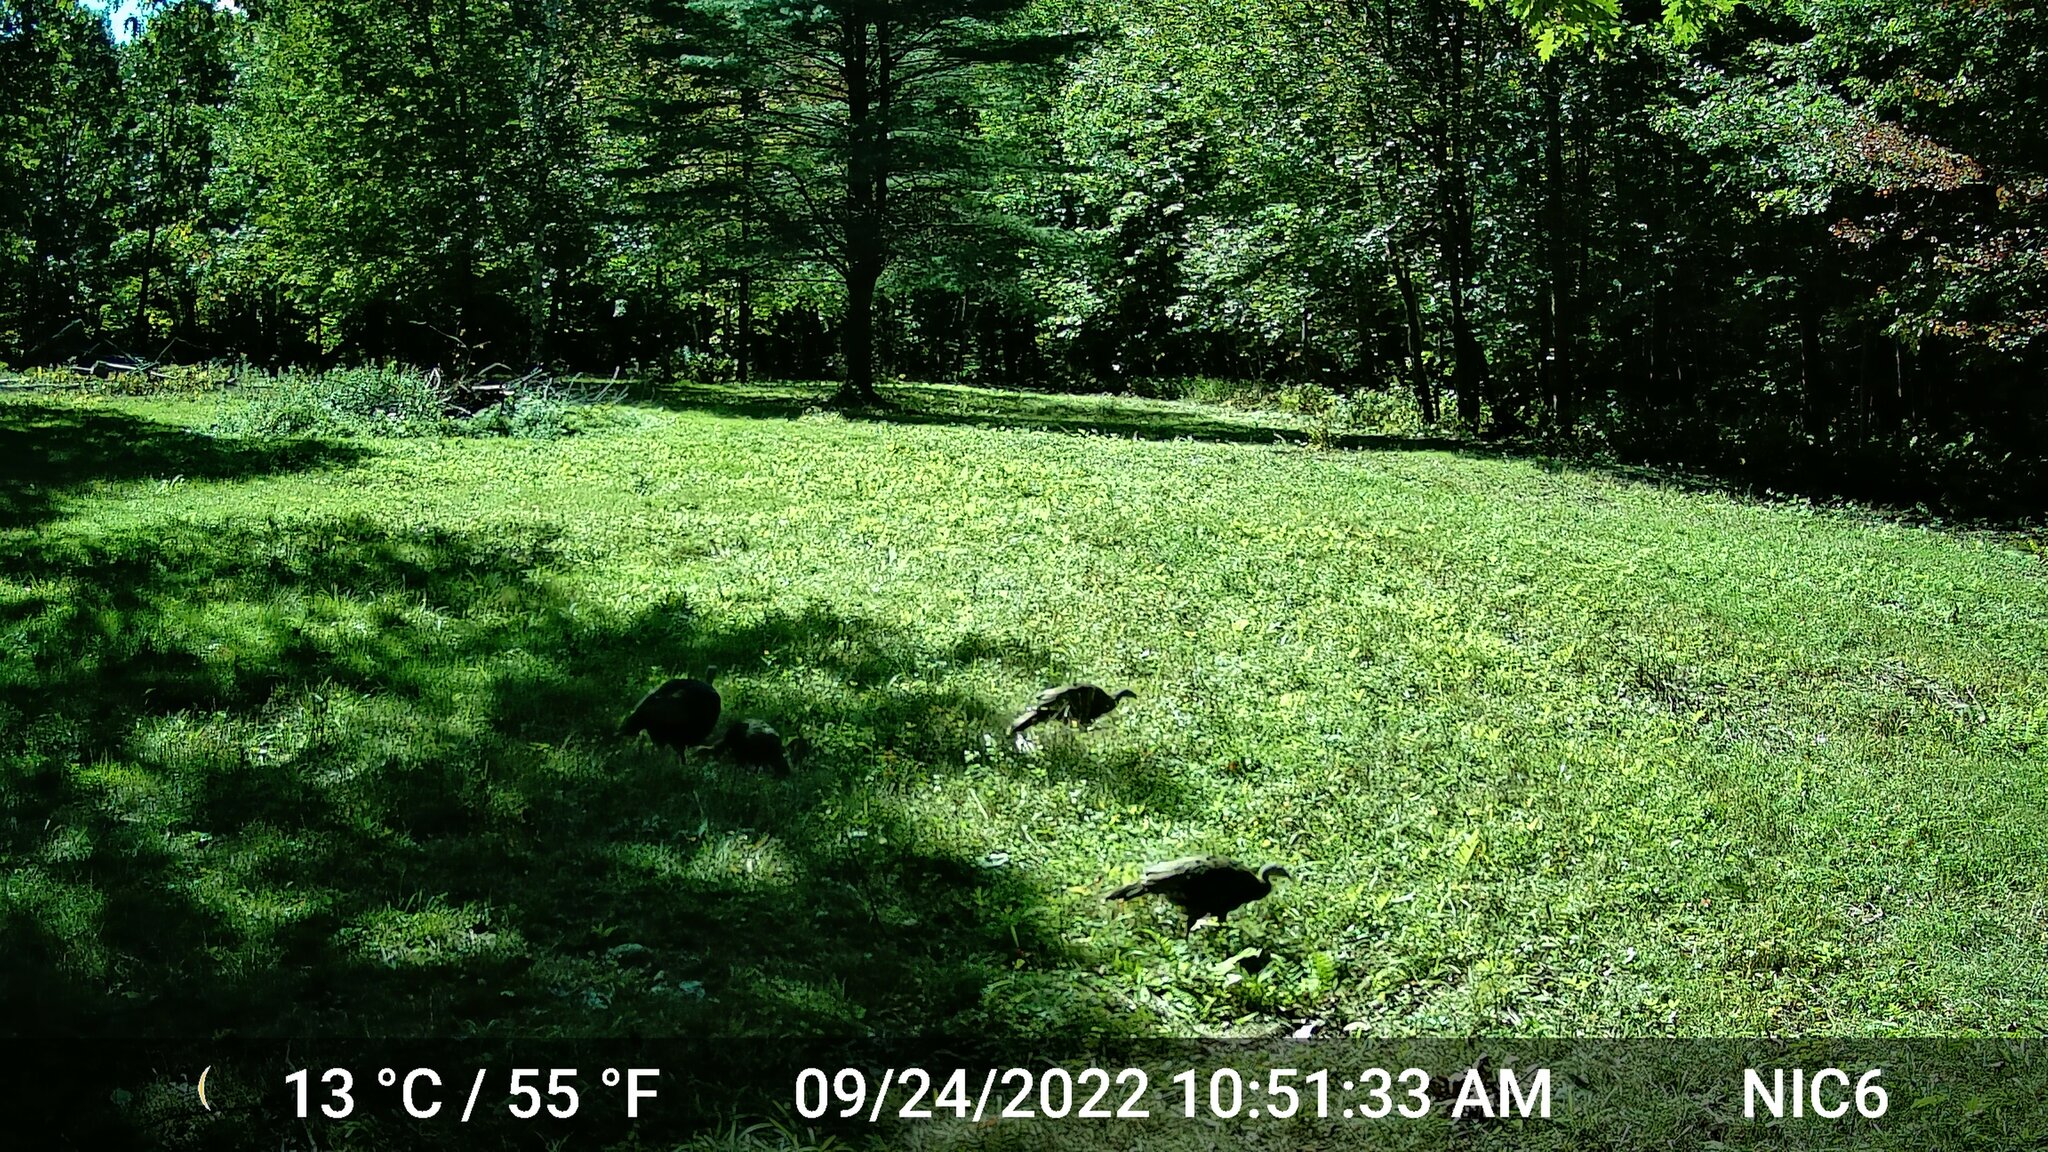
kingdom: Animalia
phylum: Chordata
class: Aves
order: Galliformes
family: Phasianidae
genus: Meleagris
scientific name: Meleagris gallopavo
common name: Wild turkey
